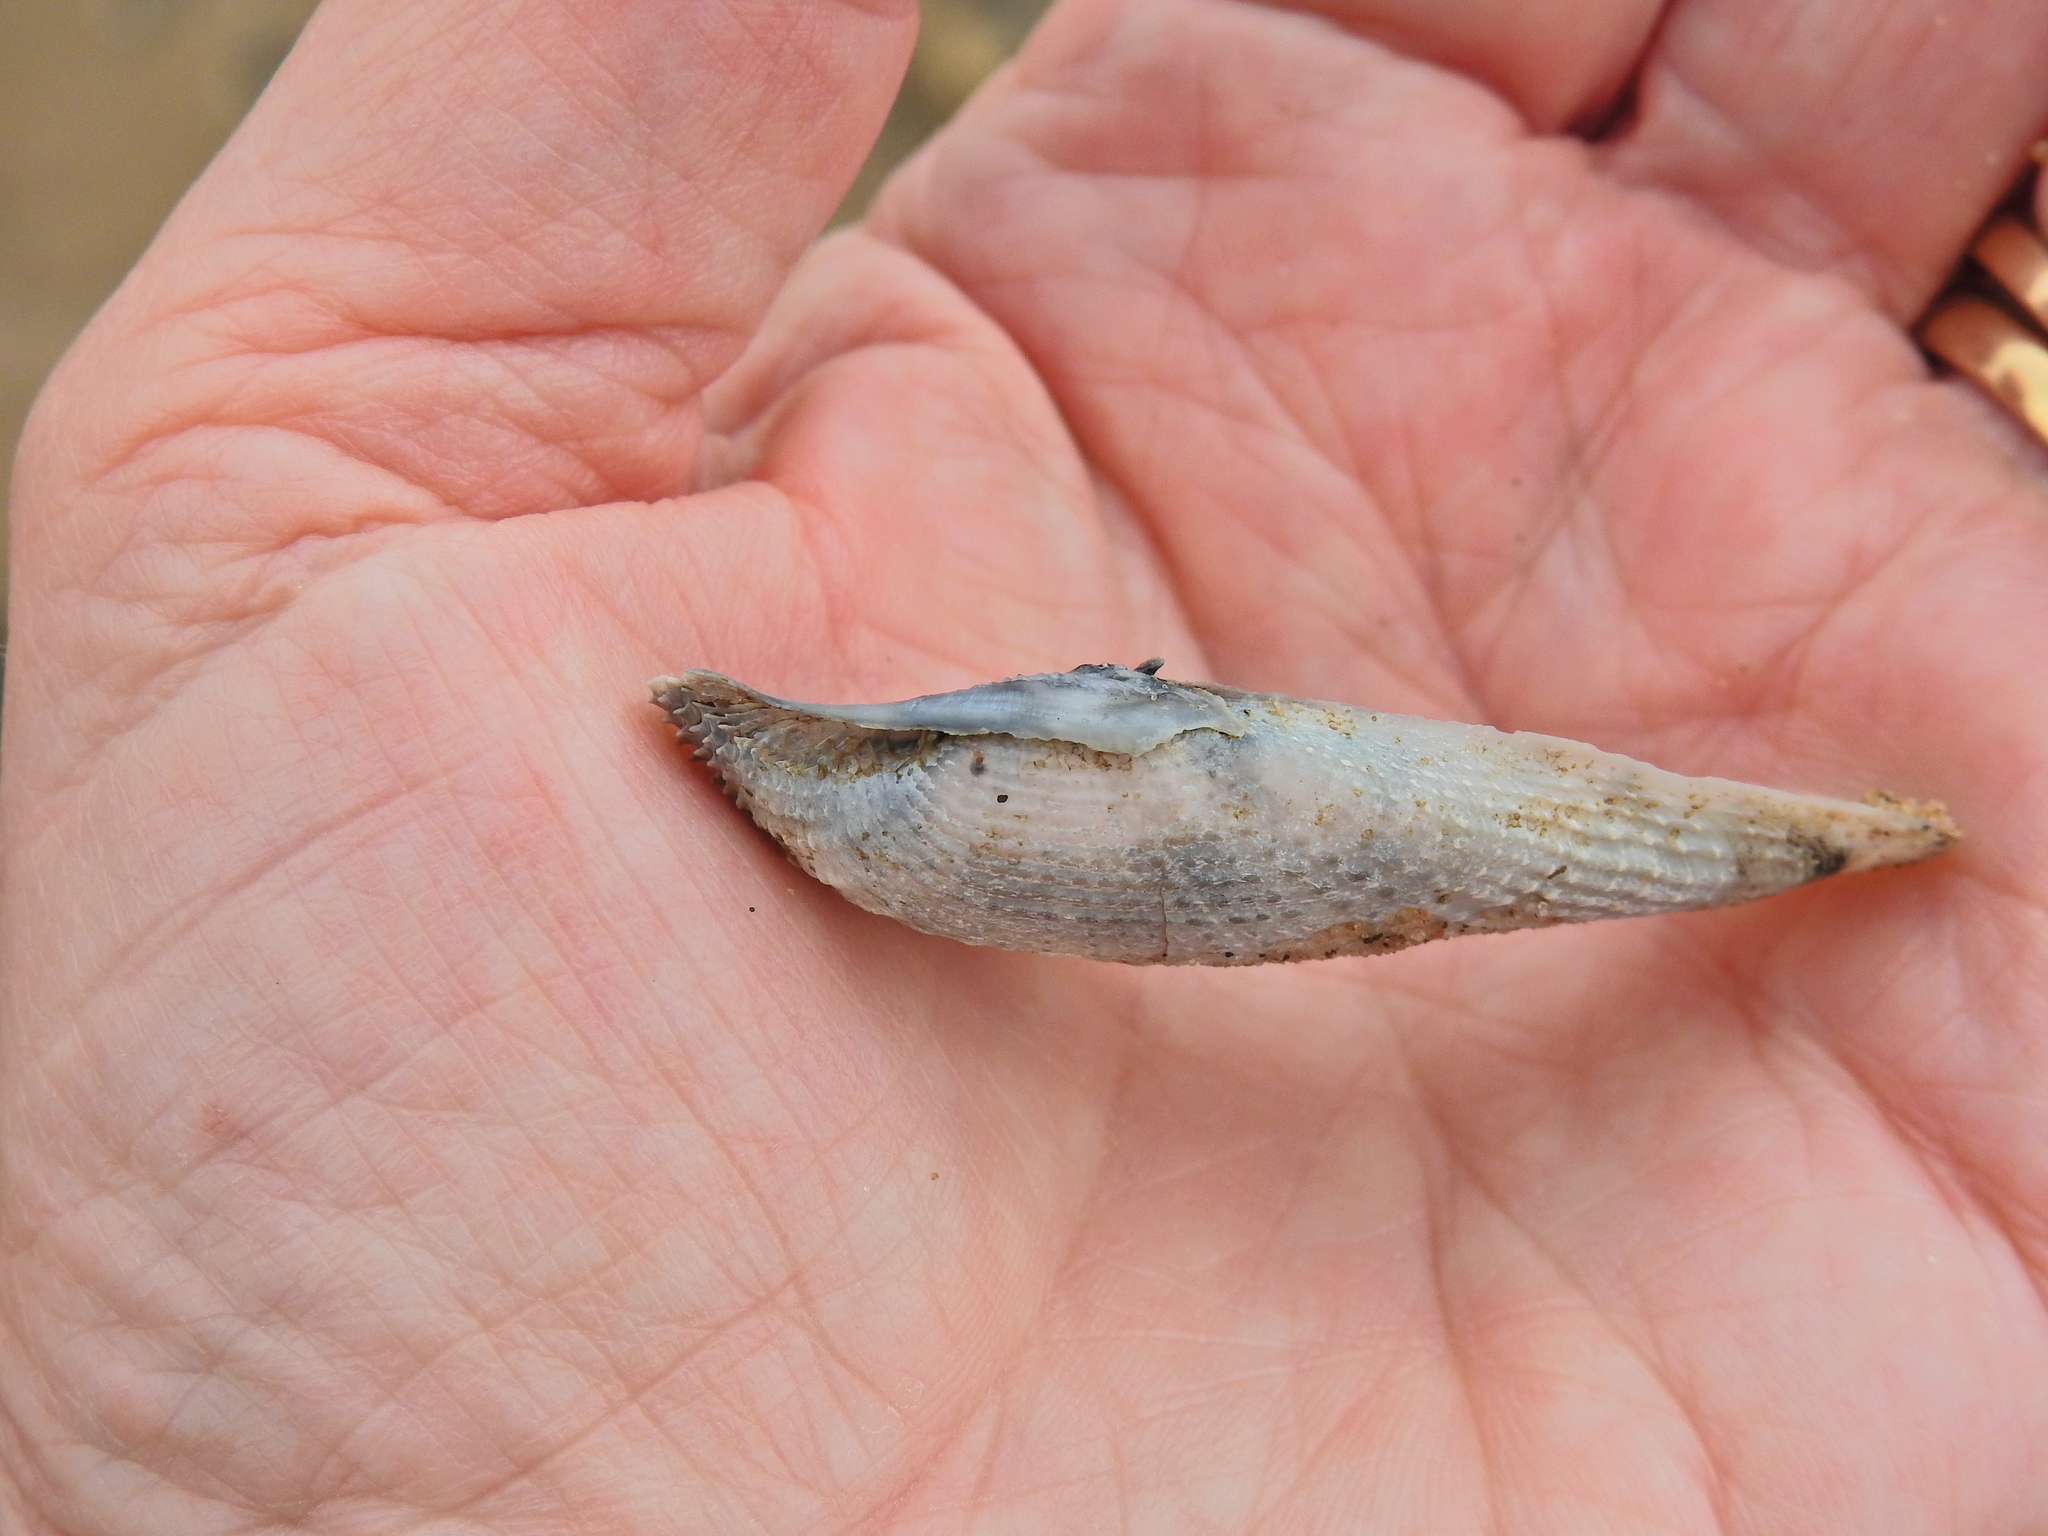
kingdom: Animalia
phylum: Mollusca
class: Bivalvia
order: Myida
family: Pholadidae
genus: Barnea
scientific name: Barnea candida
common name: White piddock
